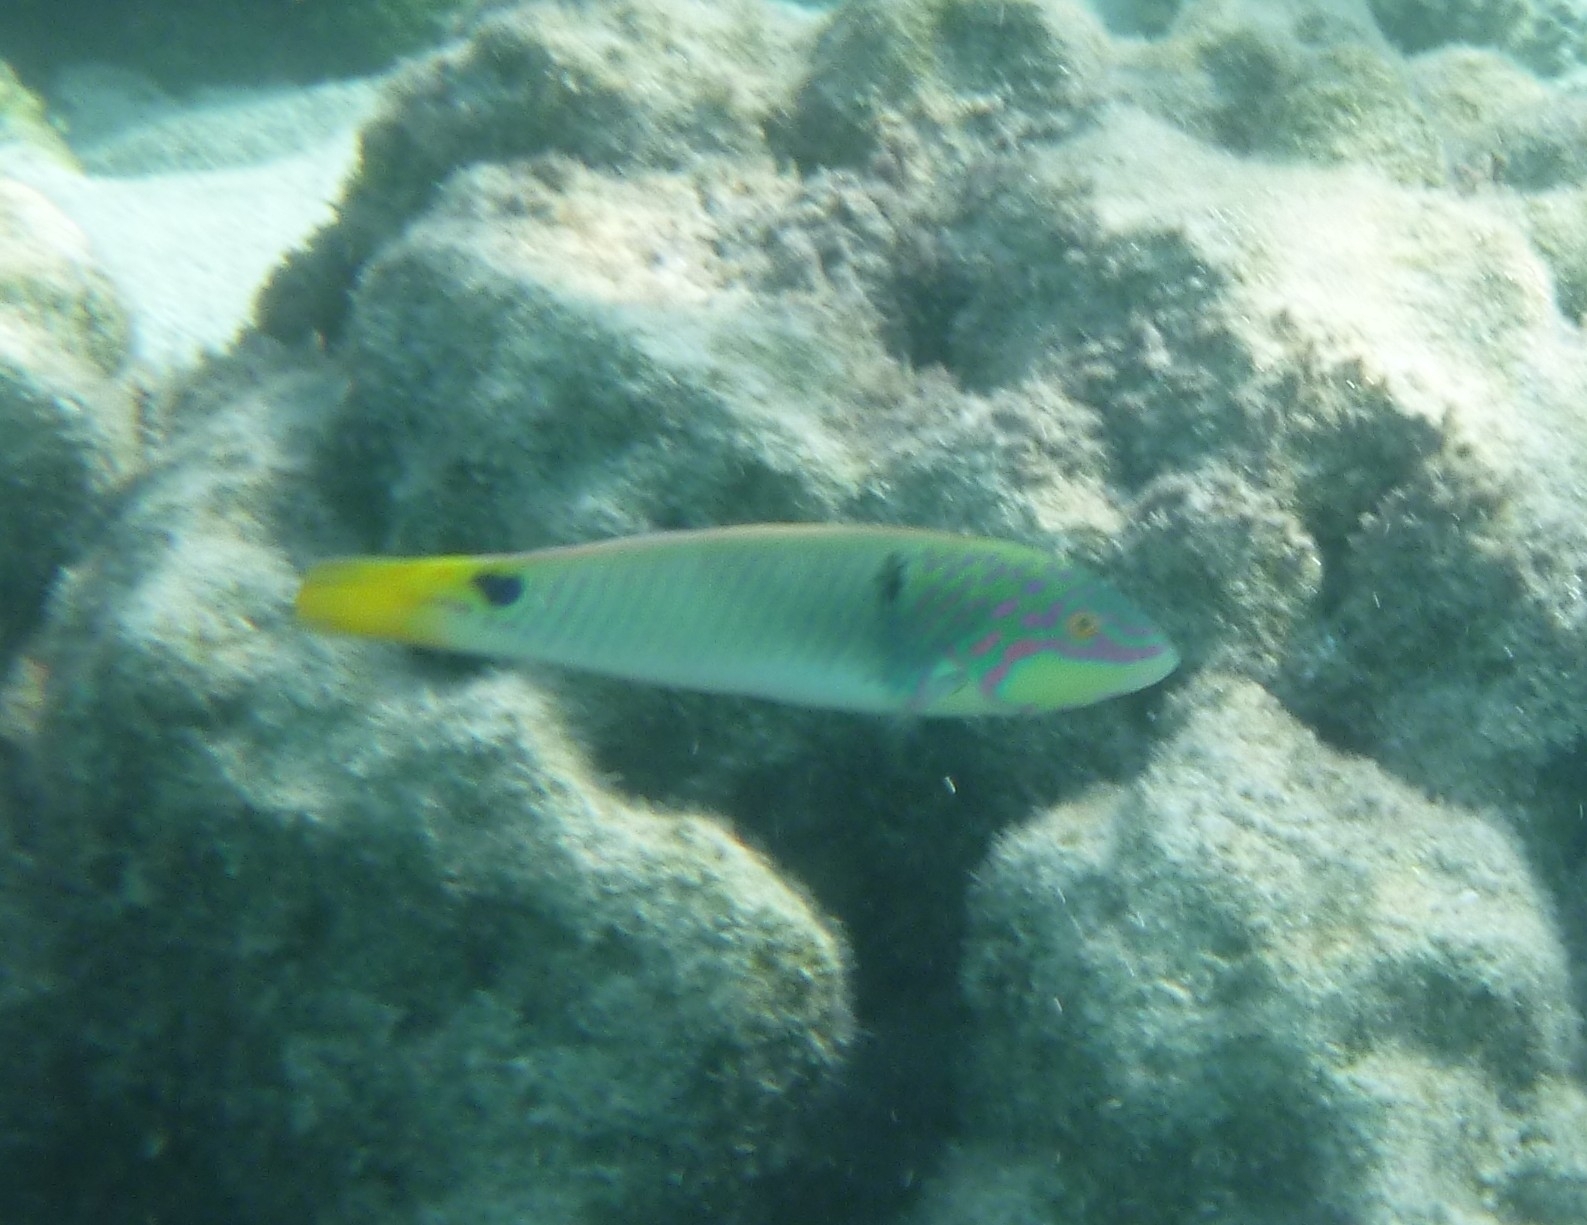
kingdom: Animalia
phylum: Chordata
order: Perciformes
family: Labridae
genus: Halichoeres
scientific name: Halichoeres trimaculatus
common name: Three-spot wrasse
